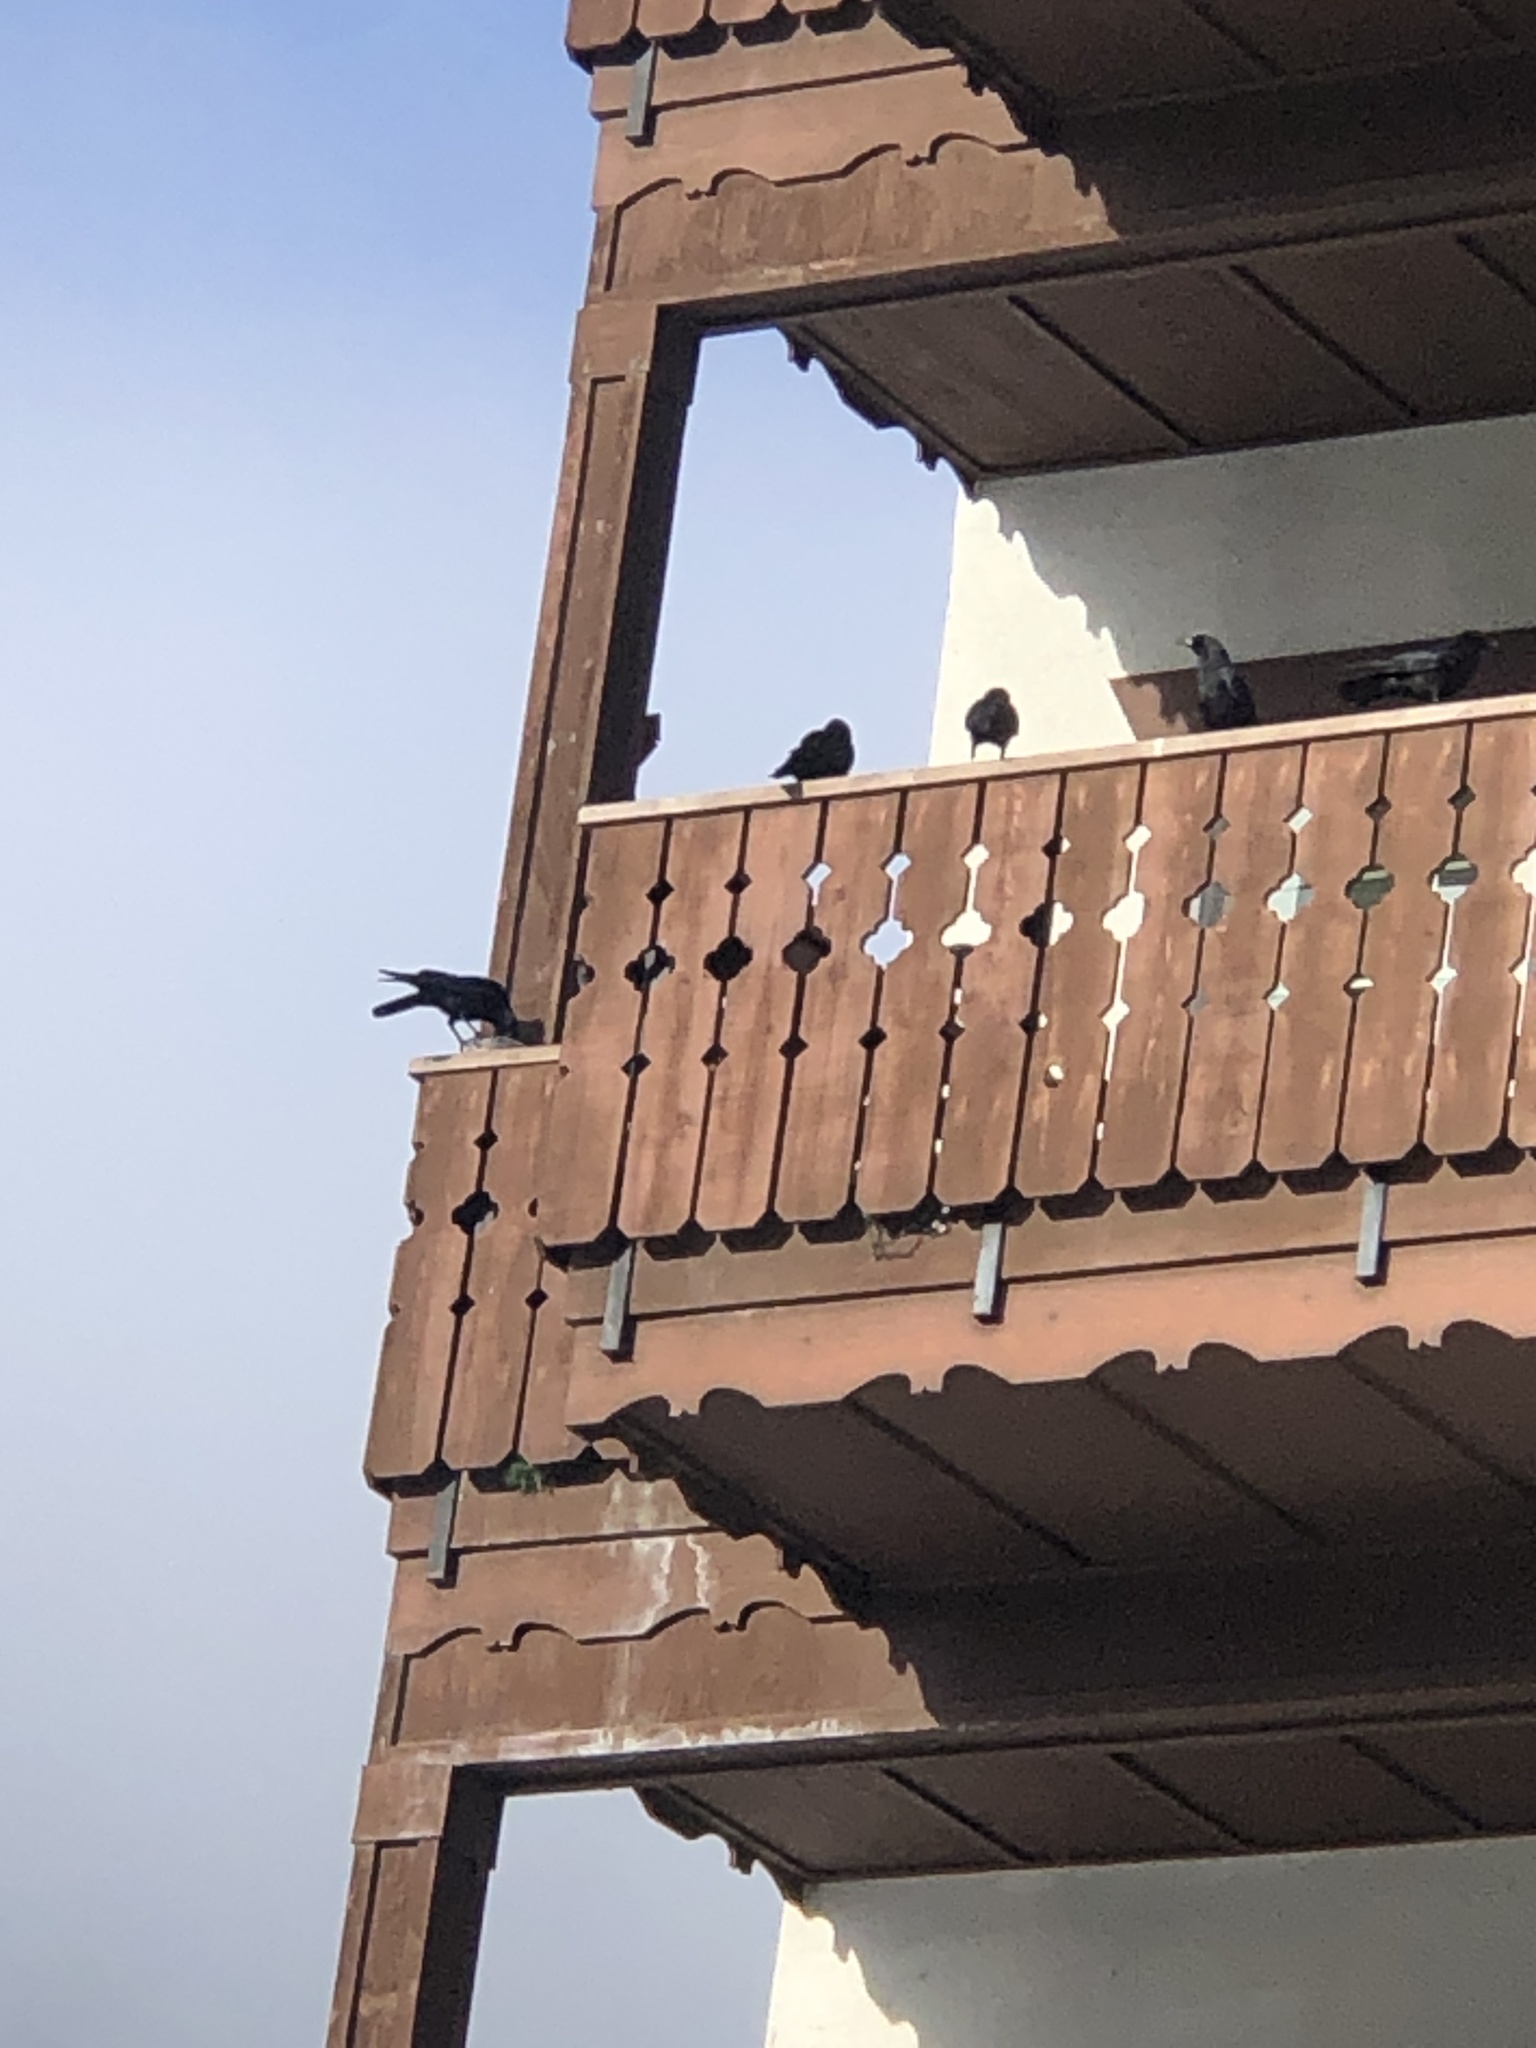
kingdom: Animalia
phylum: Chordata
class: Aves
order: Passeriformes
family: Corvidae
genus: Corvus
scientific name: Corvus brachyrhynchos
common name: American crow
